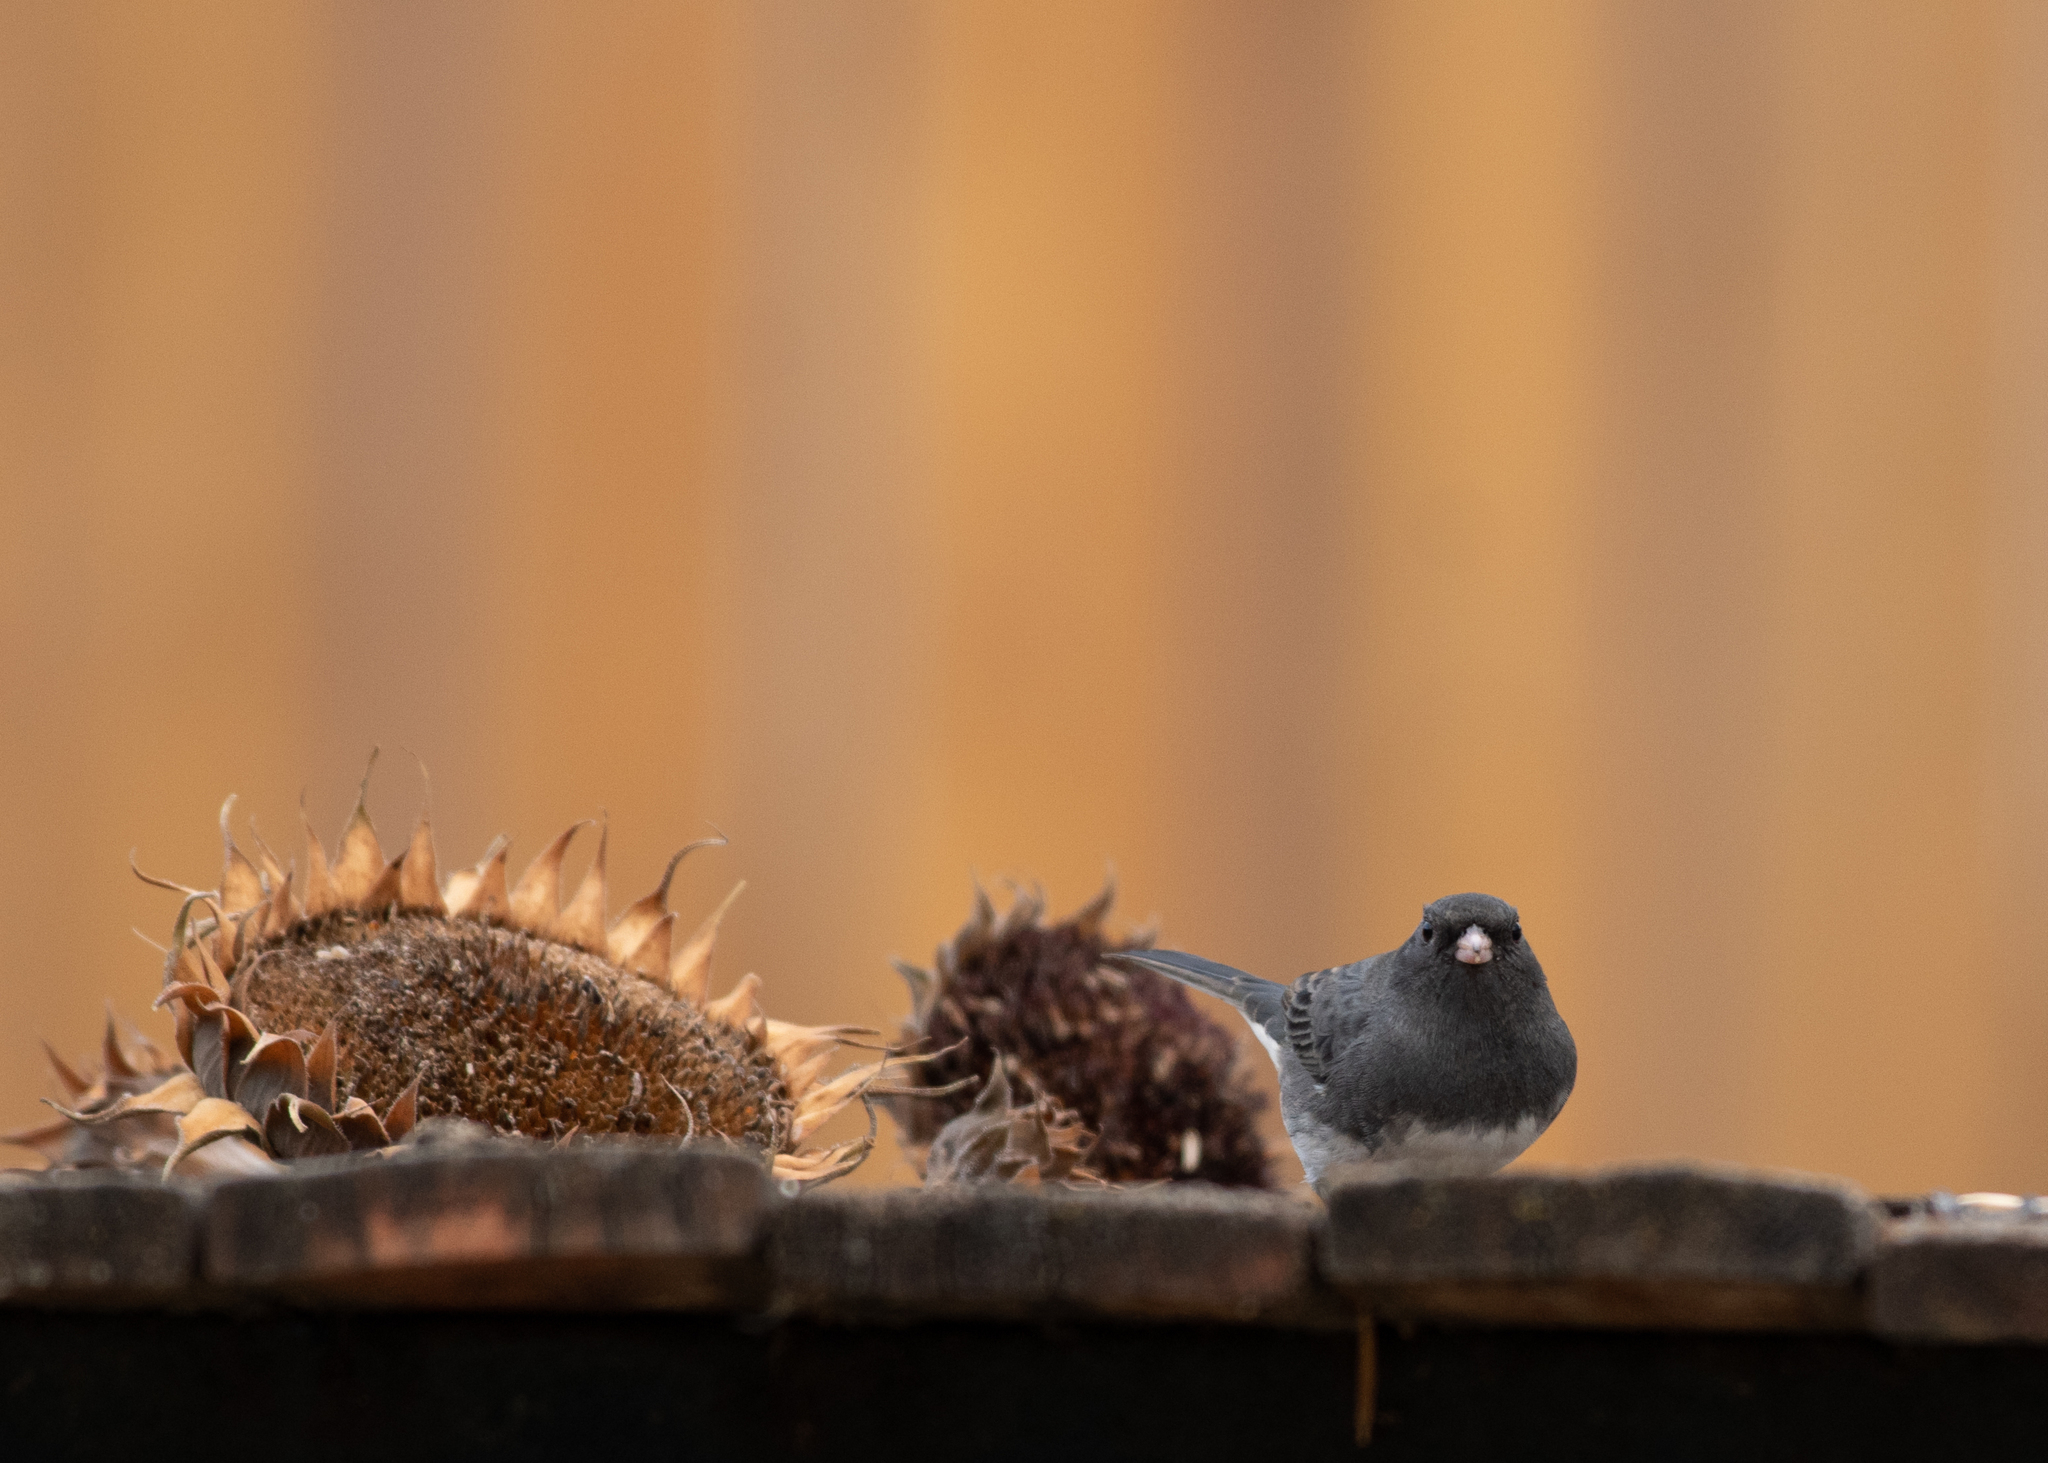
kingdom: Animalia
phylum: Chordata
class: Aves
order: Passeriformes
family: Passerellidae
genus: Junco
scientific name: Junco hyemalis
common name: Dark-eyed junco
